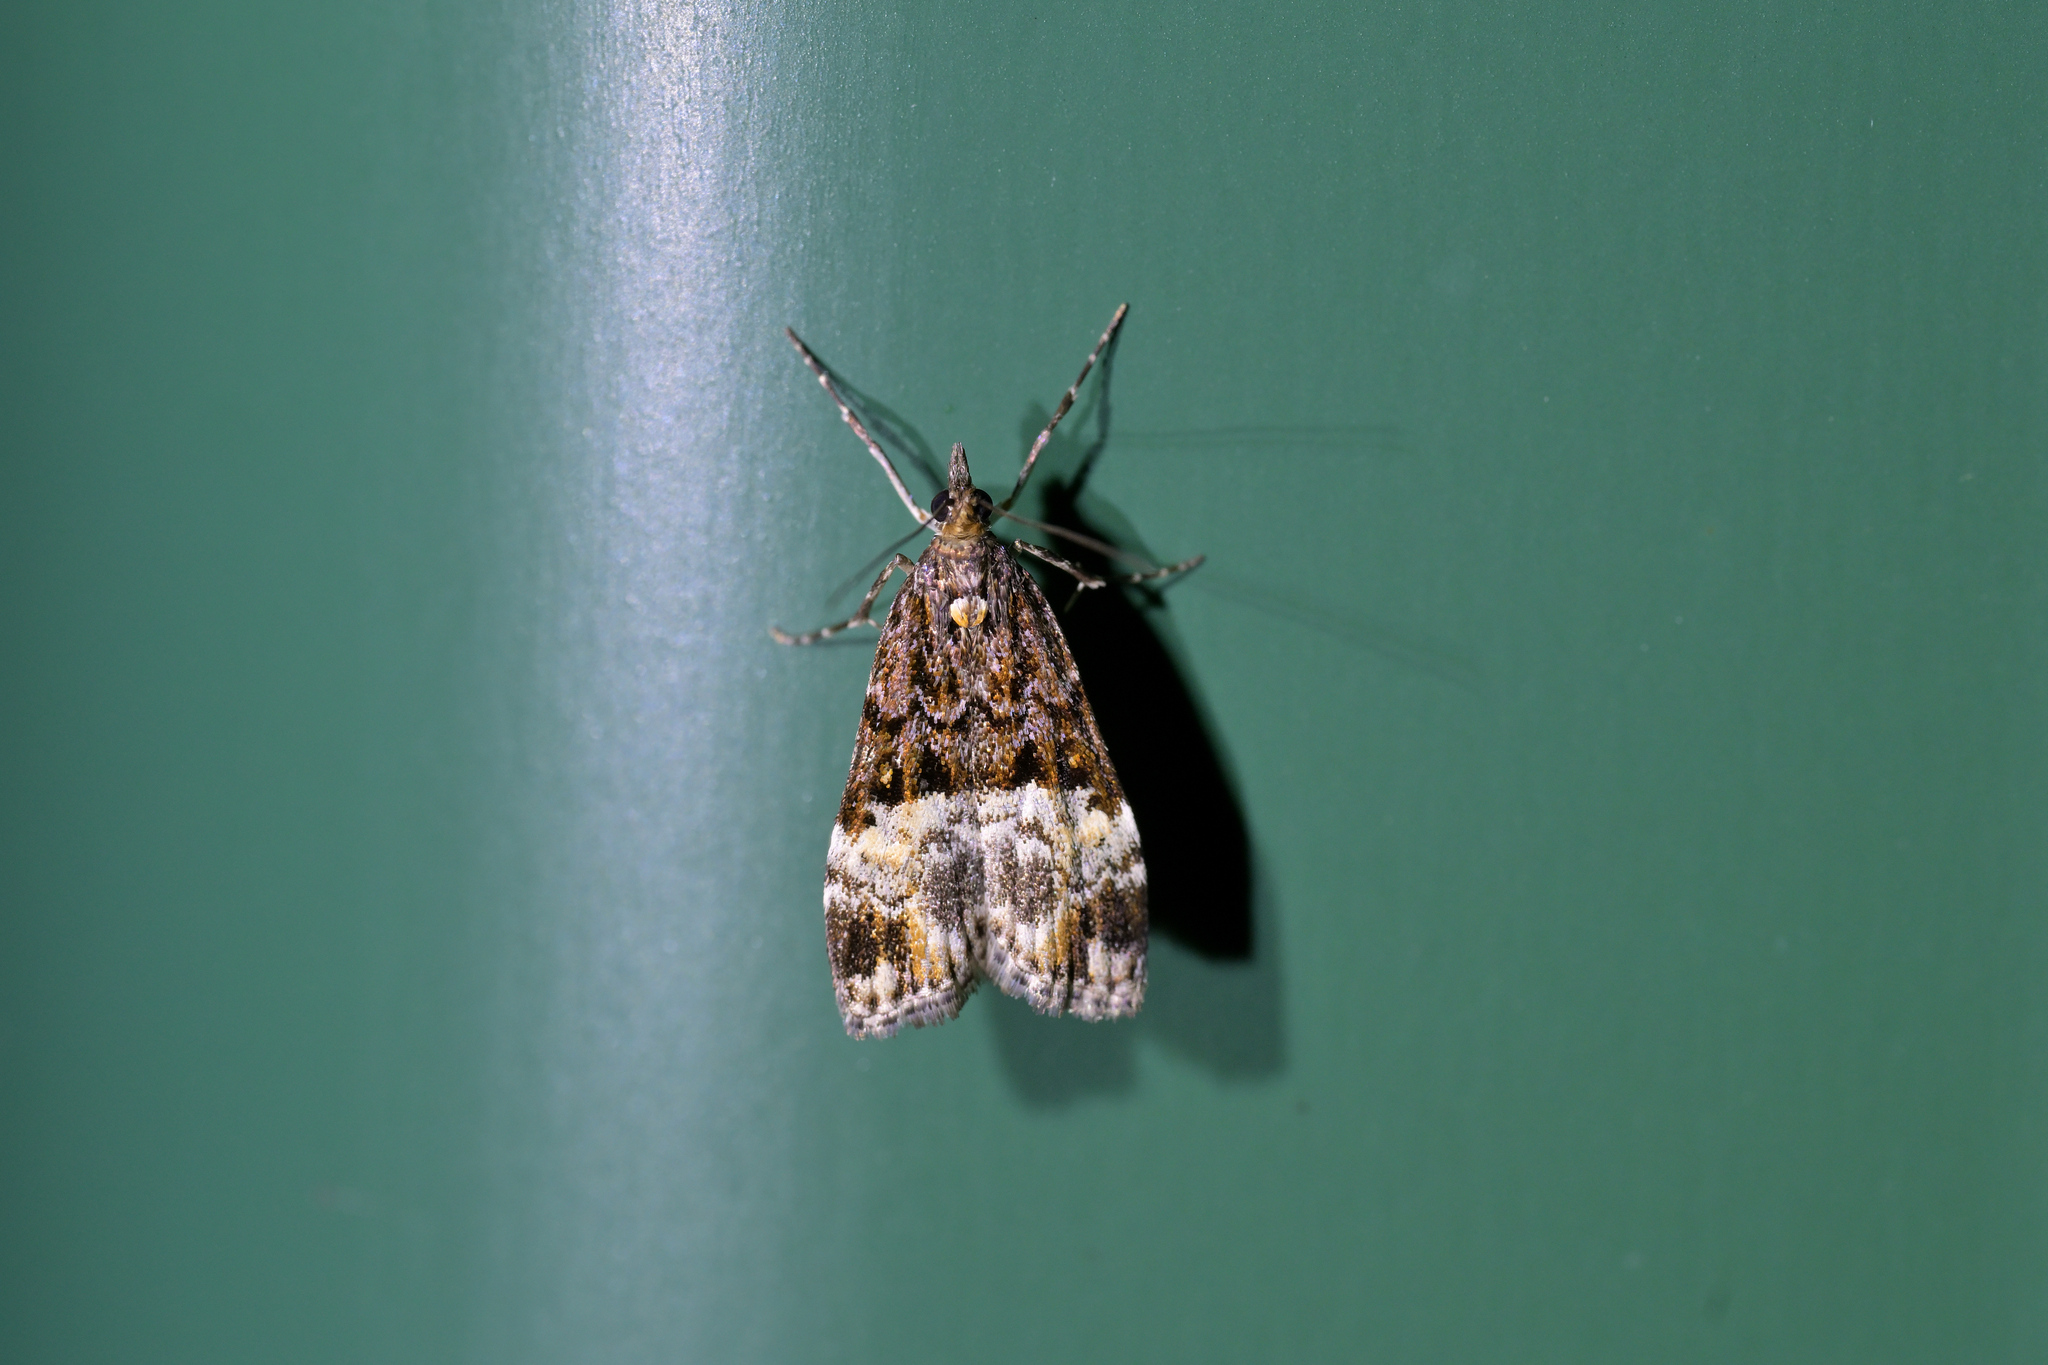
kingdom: Animalia
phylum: Arthropoda
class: Insecta
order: Lepidoptera
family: Crambidae
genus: Scoparia
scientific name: Scoparia minusculalis
